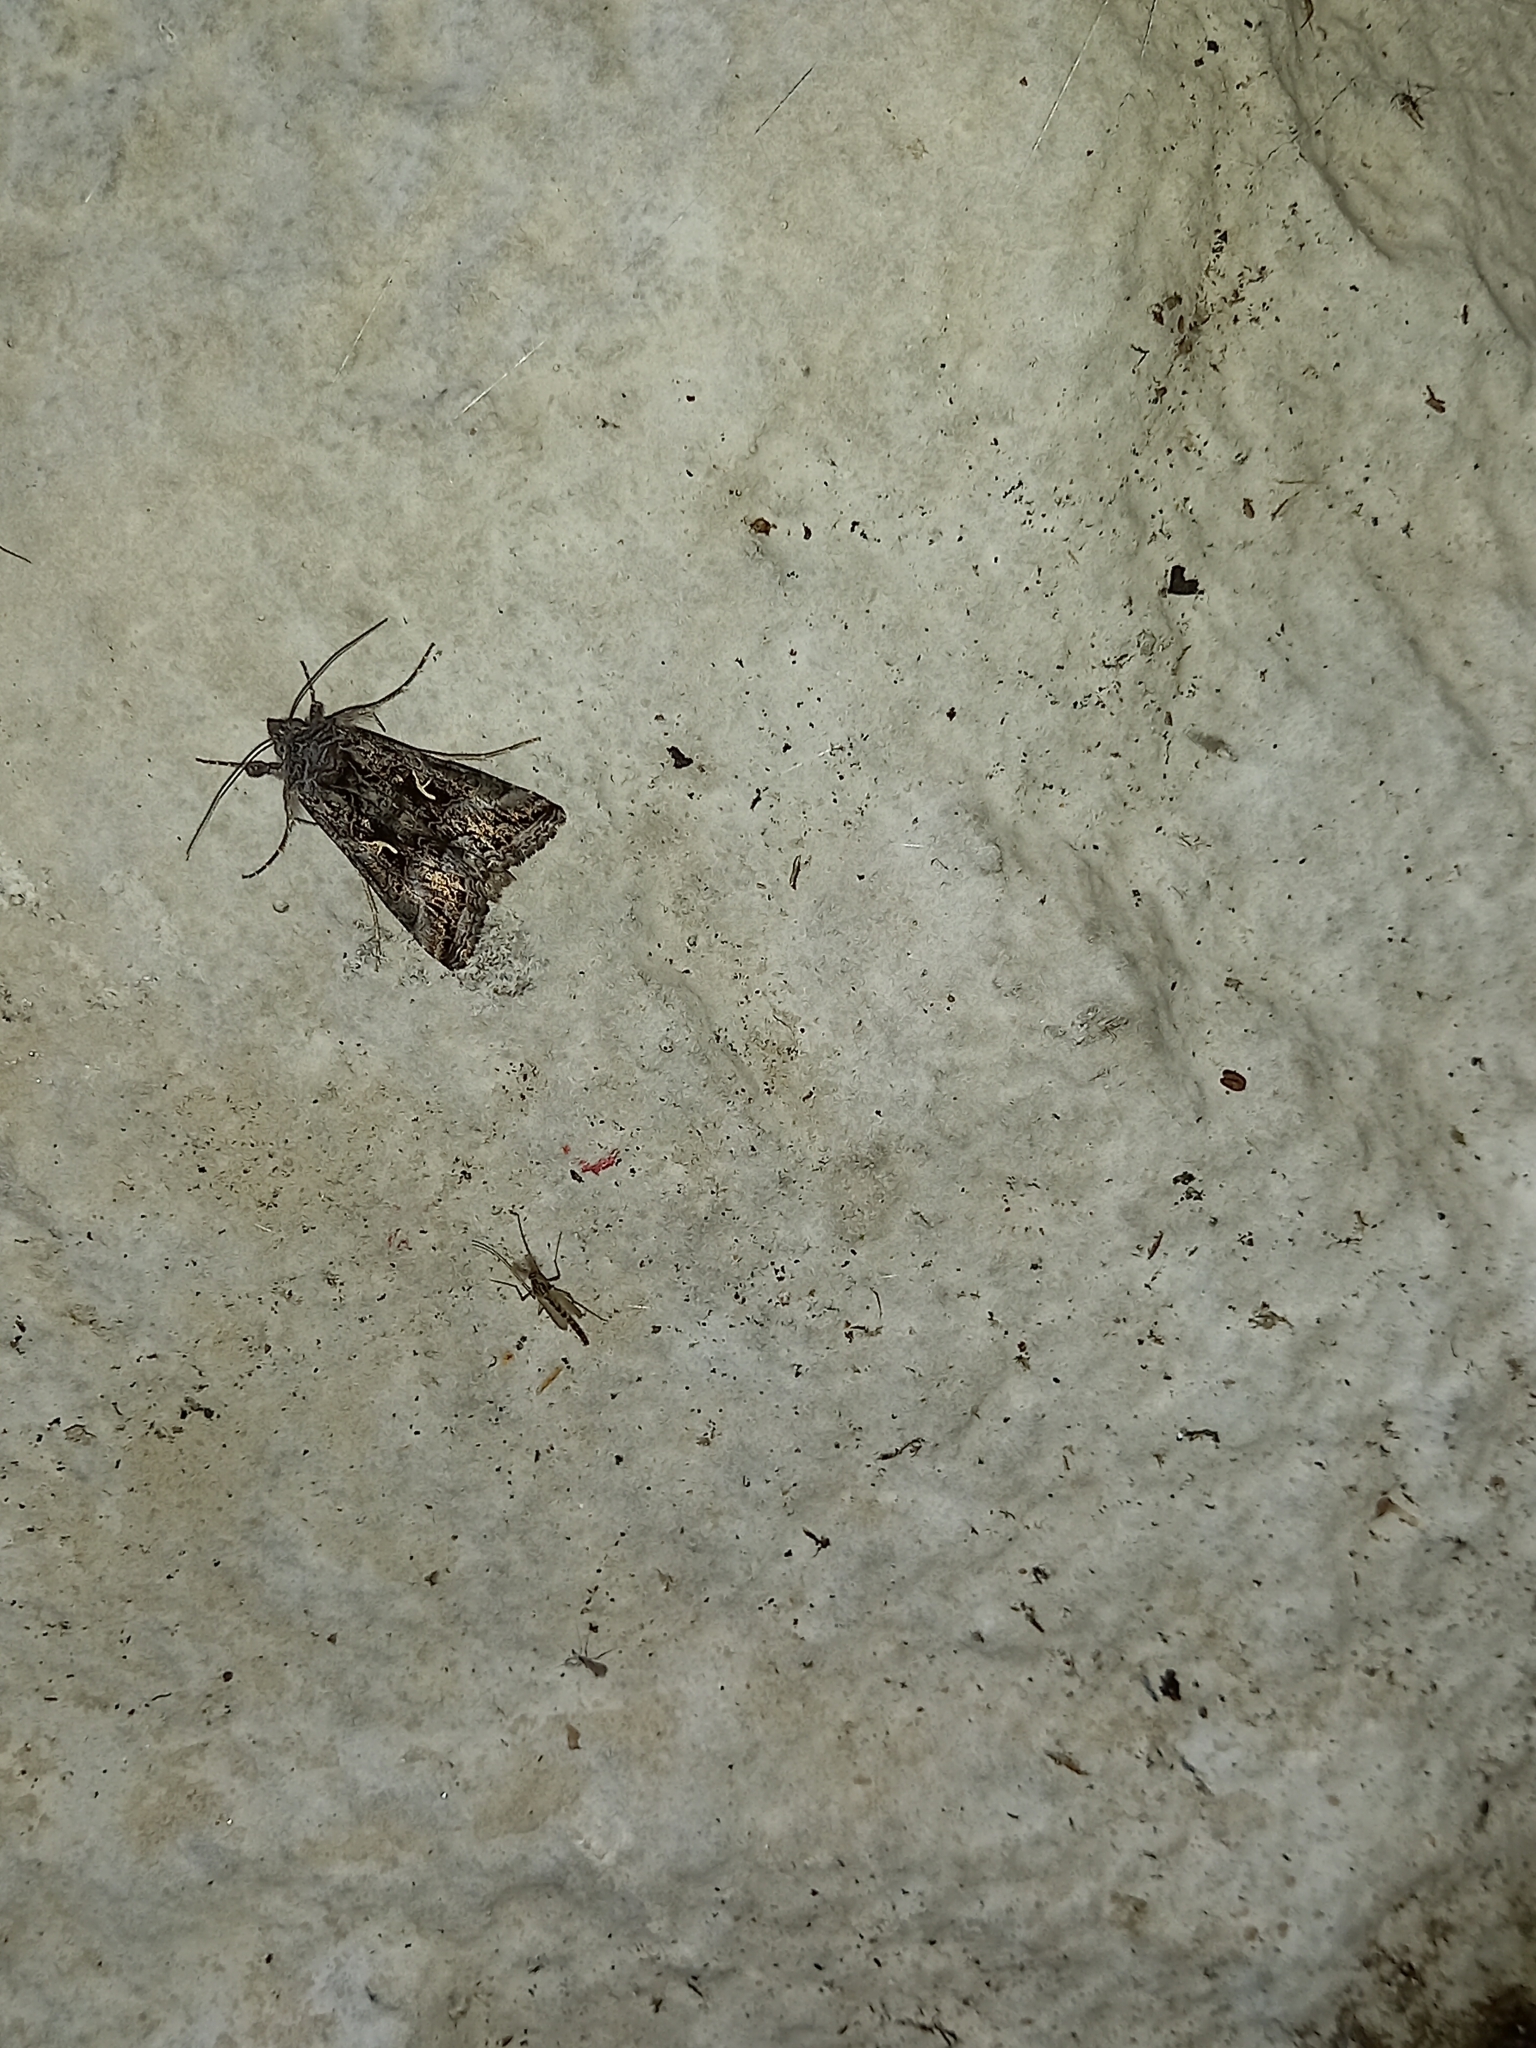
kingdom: Animalia
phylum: Arthropoda
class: Insecta
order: Lepidoptera
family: Noctuidae
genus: Autographa
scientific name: Autographa gamma
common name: Silver y
